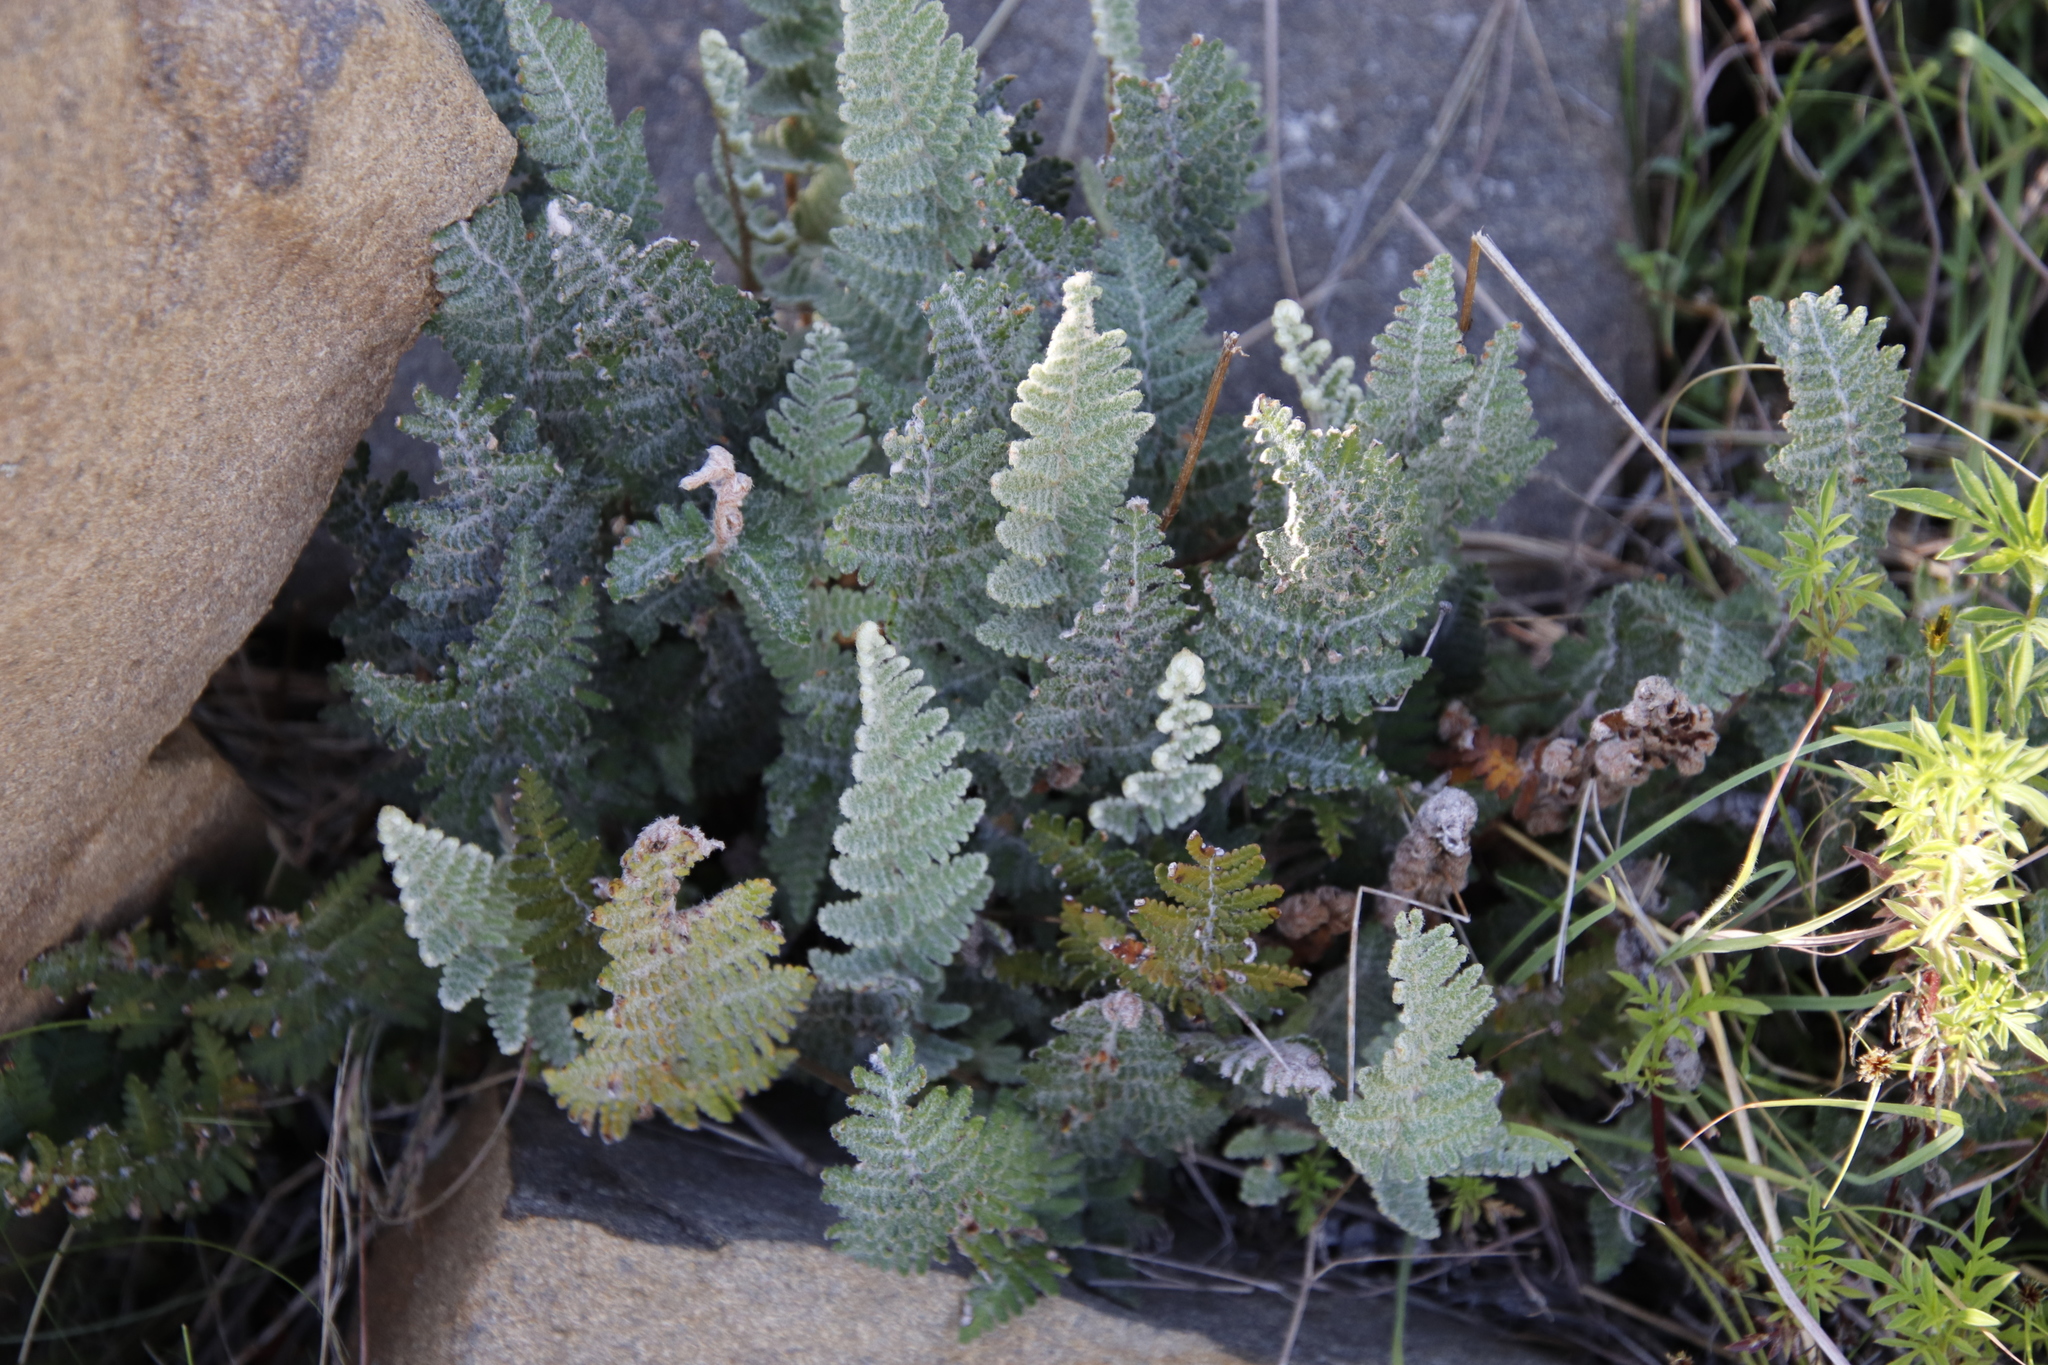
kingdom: Plantae
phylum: Tracheophyta
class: Polypodiopsida
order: Polypodiales
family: Pteridaceae
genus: Cheilanthes
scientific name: Cheilanthes eckloniana
